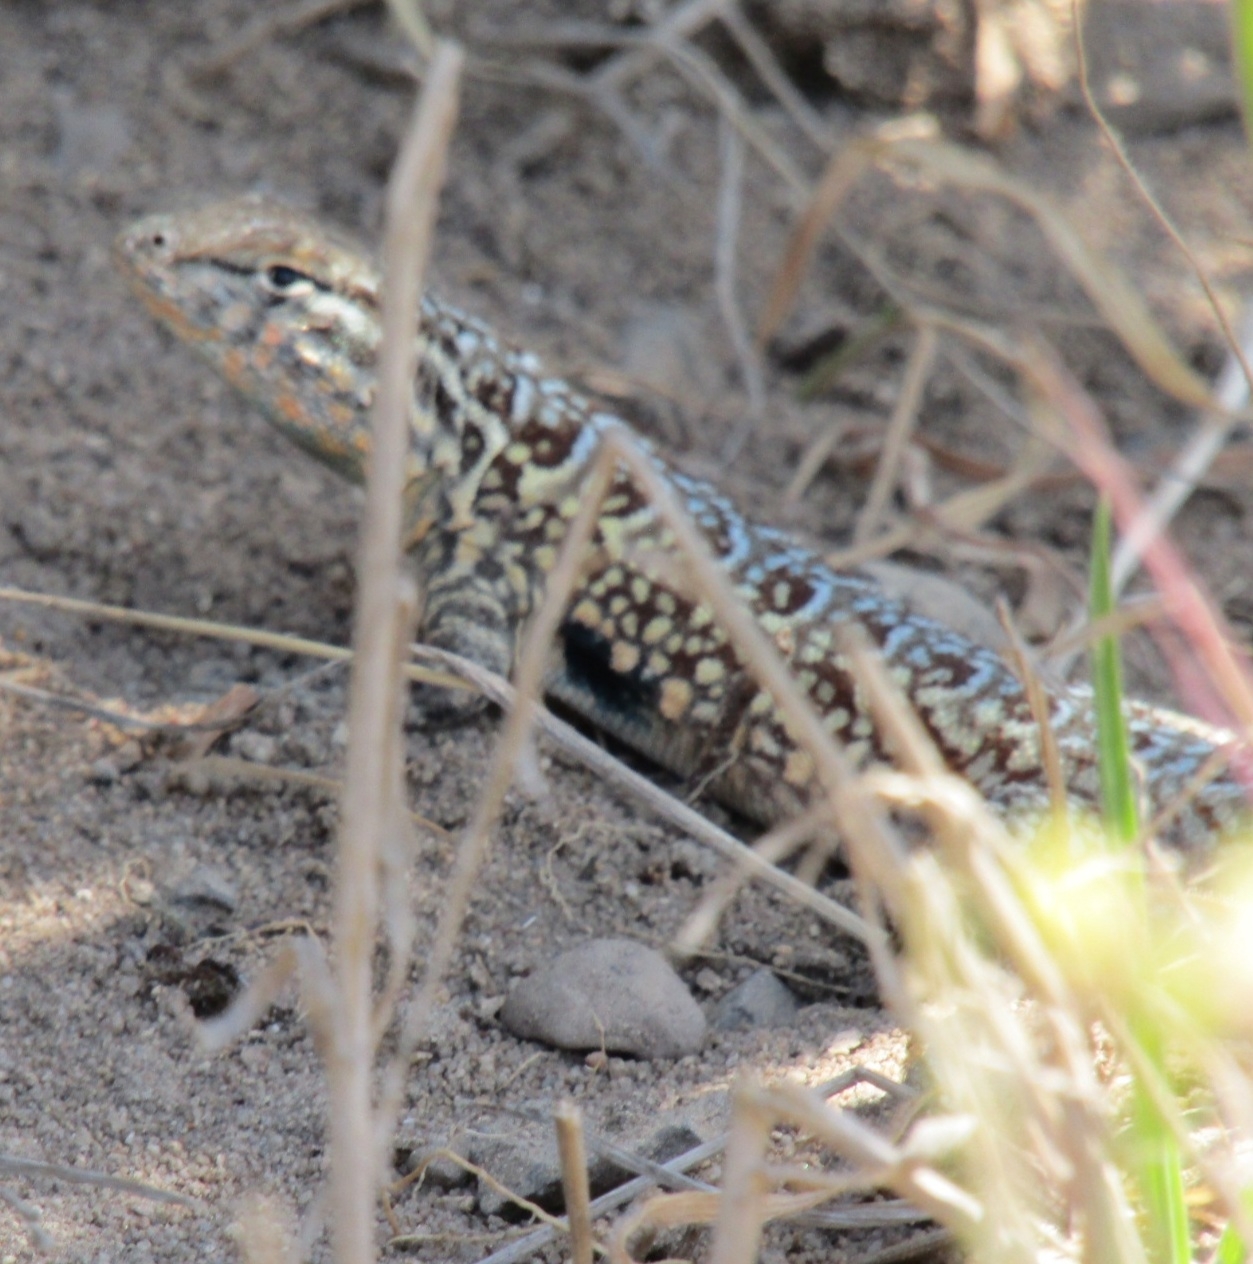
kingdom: Animalia
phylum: Chordata
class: Squamata
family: Phrynosomatidae
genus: Uta
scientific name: Uta stansburiana
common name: Side-blotched lizard
